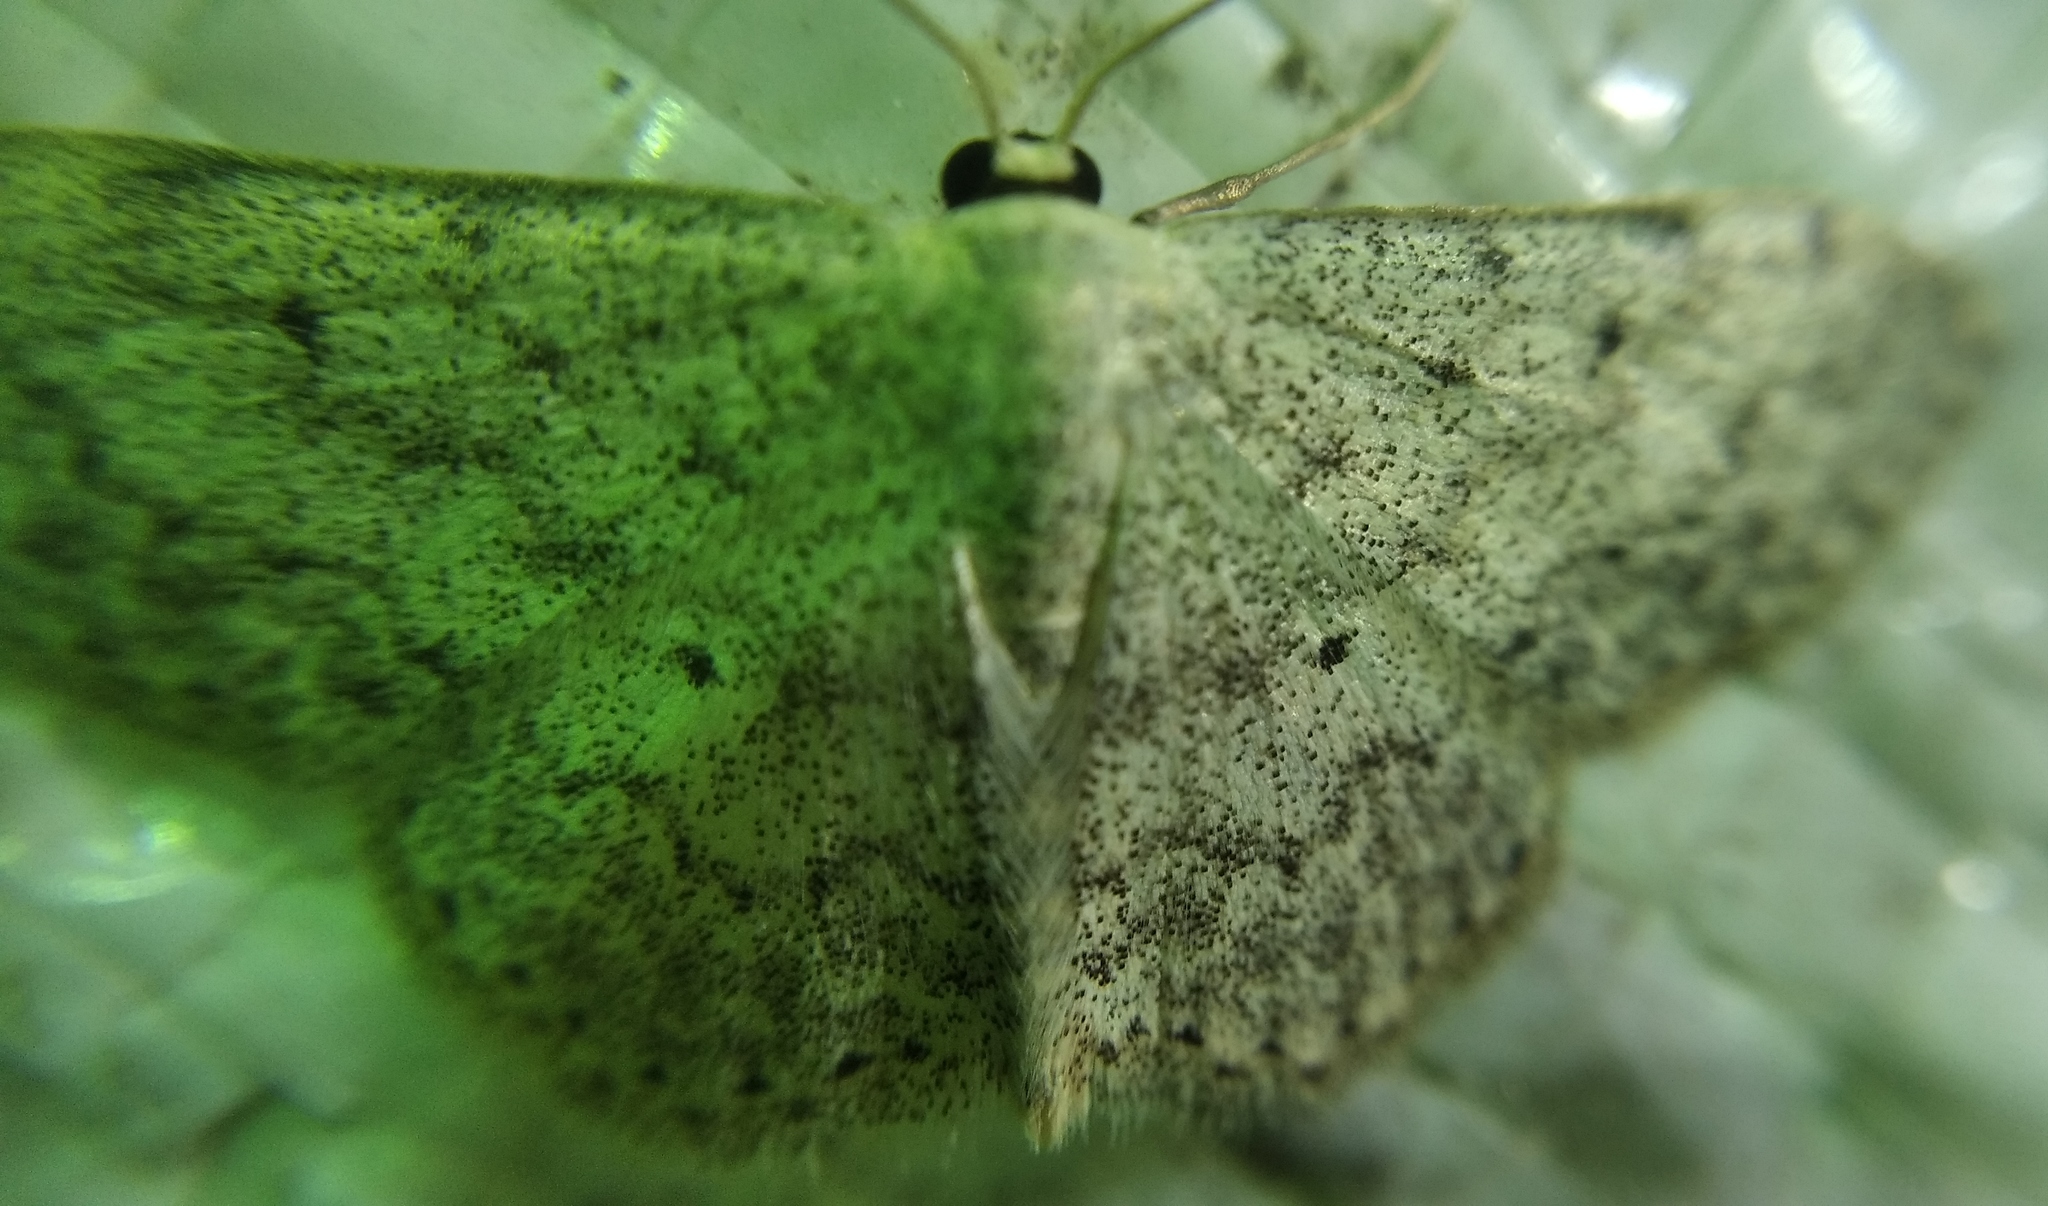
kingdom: Animalia
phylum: Arthropoda
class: Insecta
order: Lepidoptera
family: Geometridae
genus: Scopula
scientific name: Scopula marginepunctata
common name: Mullein wave
